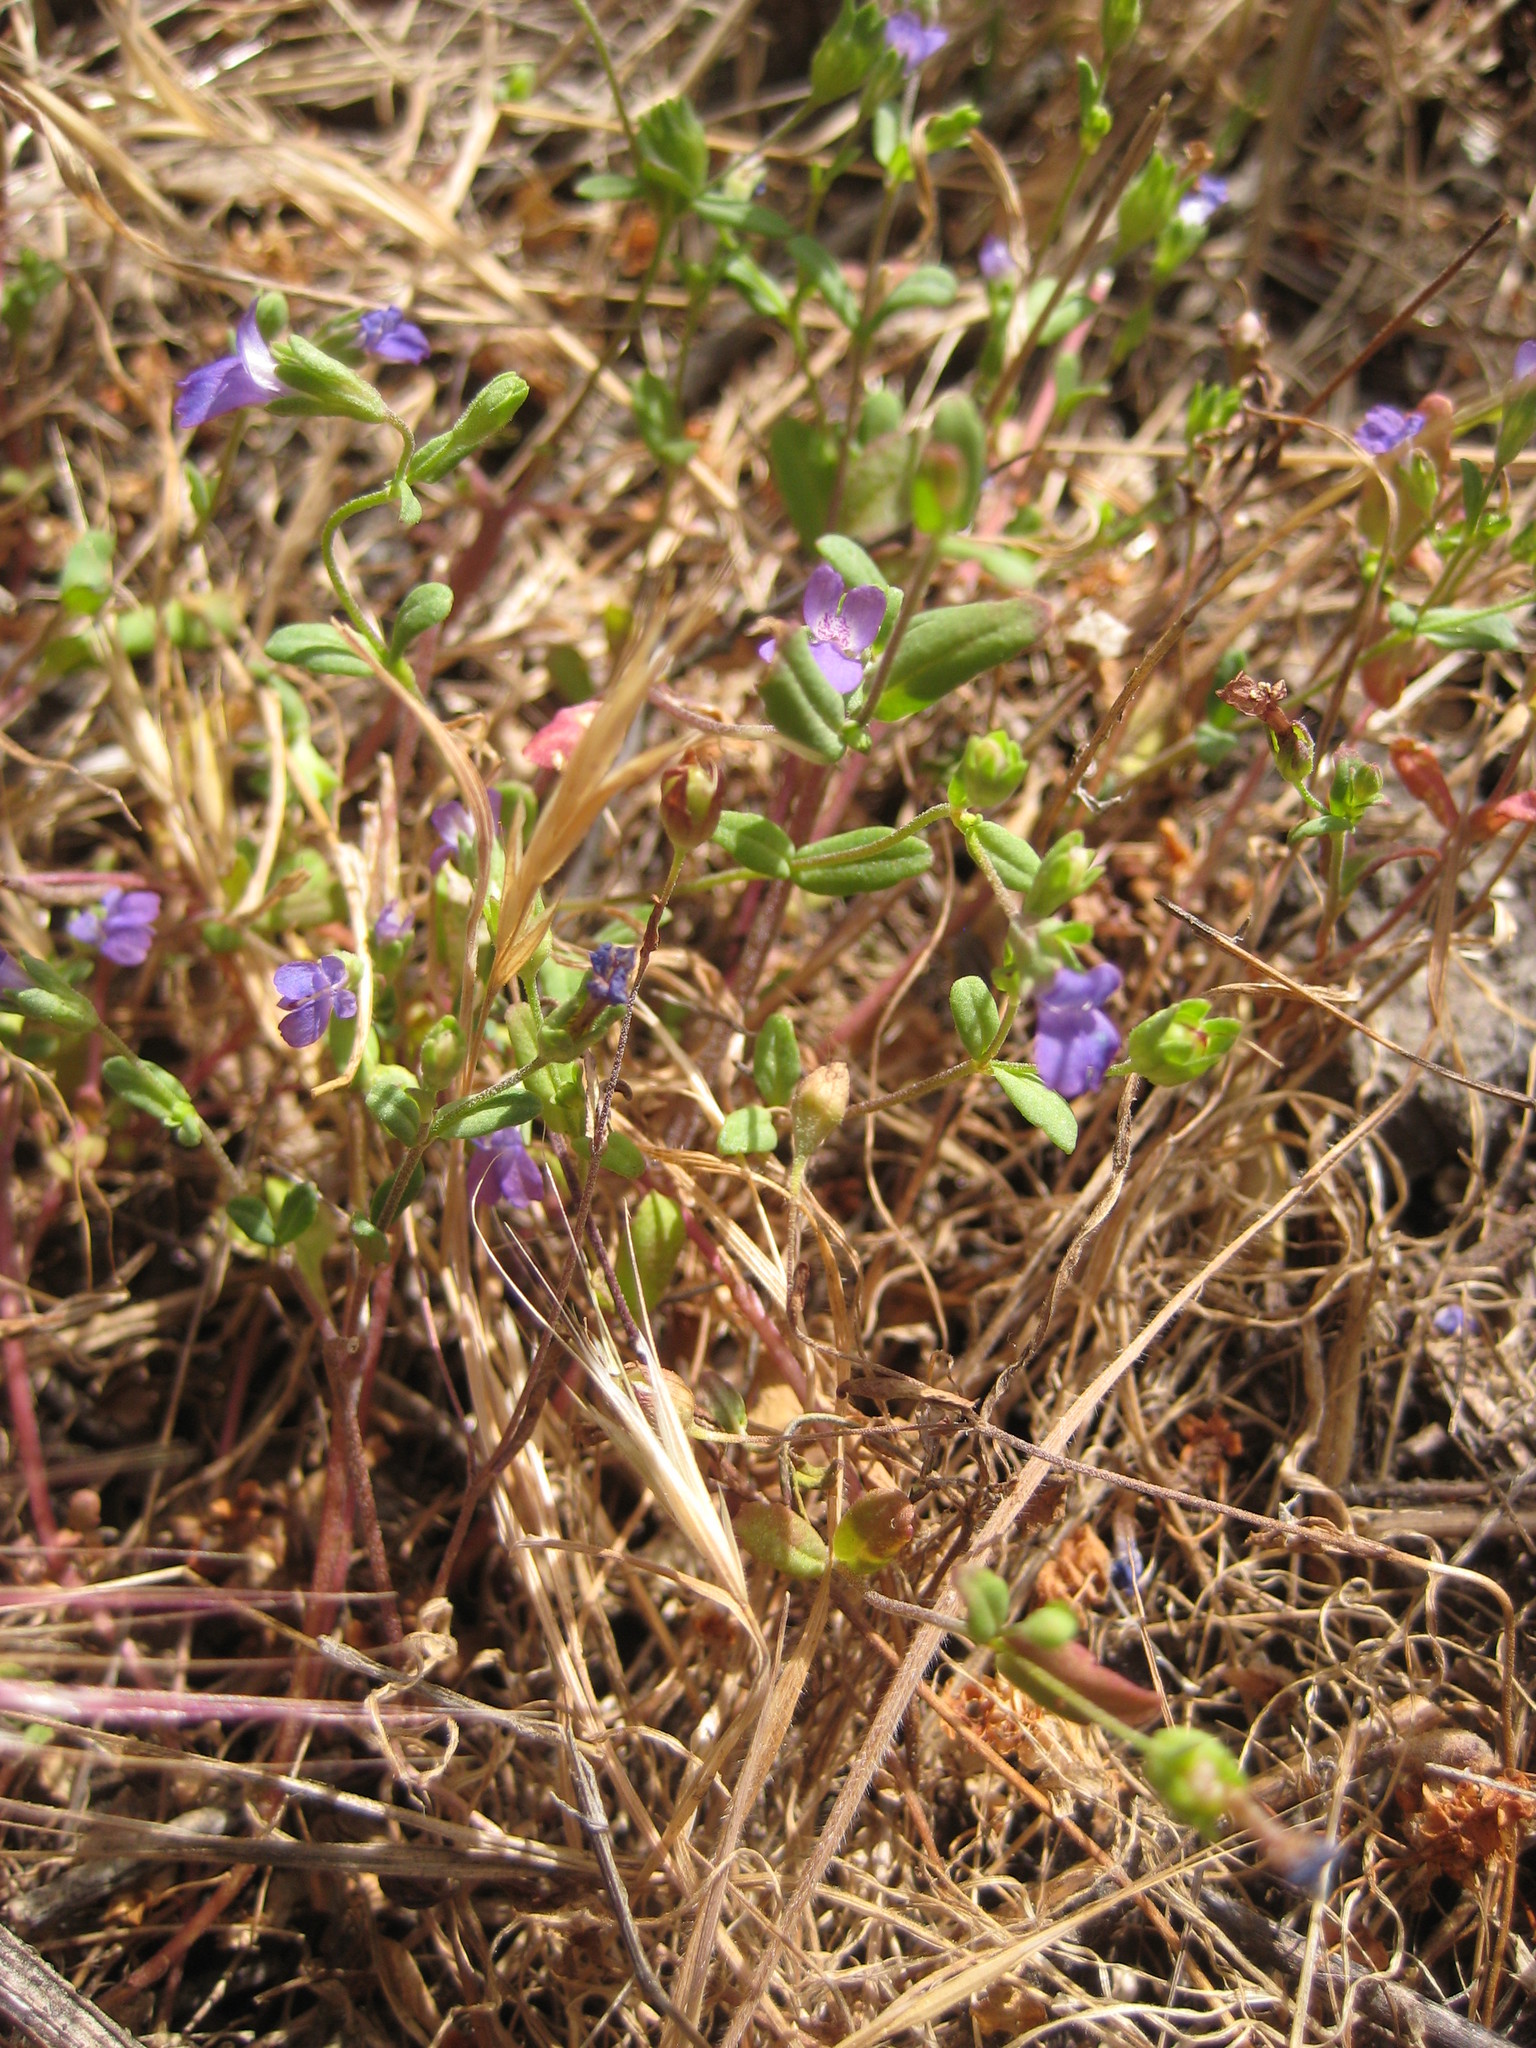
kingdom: Plantae
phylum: Tracheophyta
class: Magnoliopsida
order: Lamiales
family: Plantaginaceae
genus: Collinsia
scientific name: Collinsia parryi
